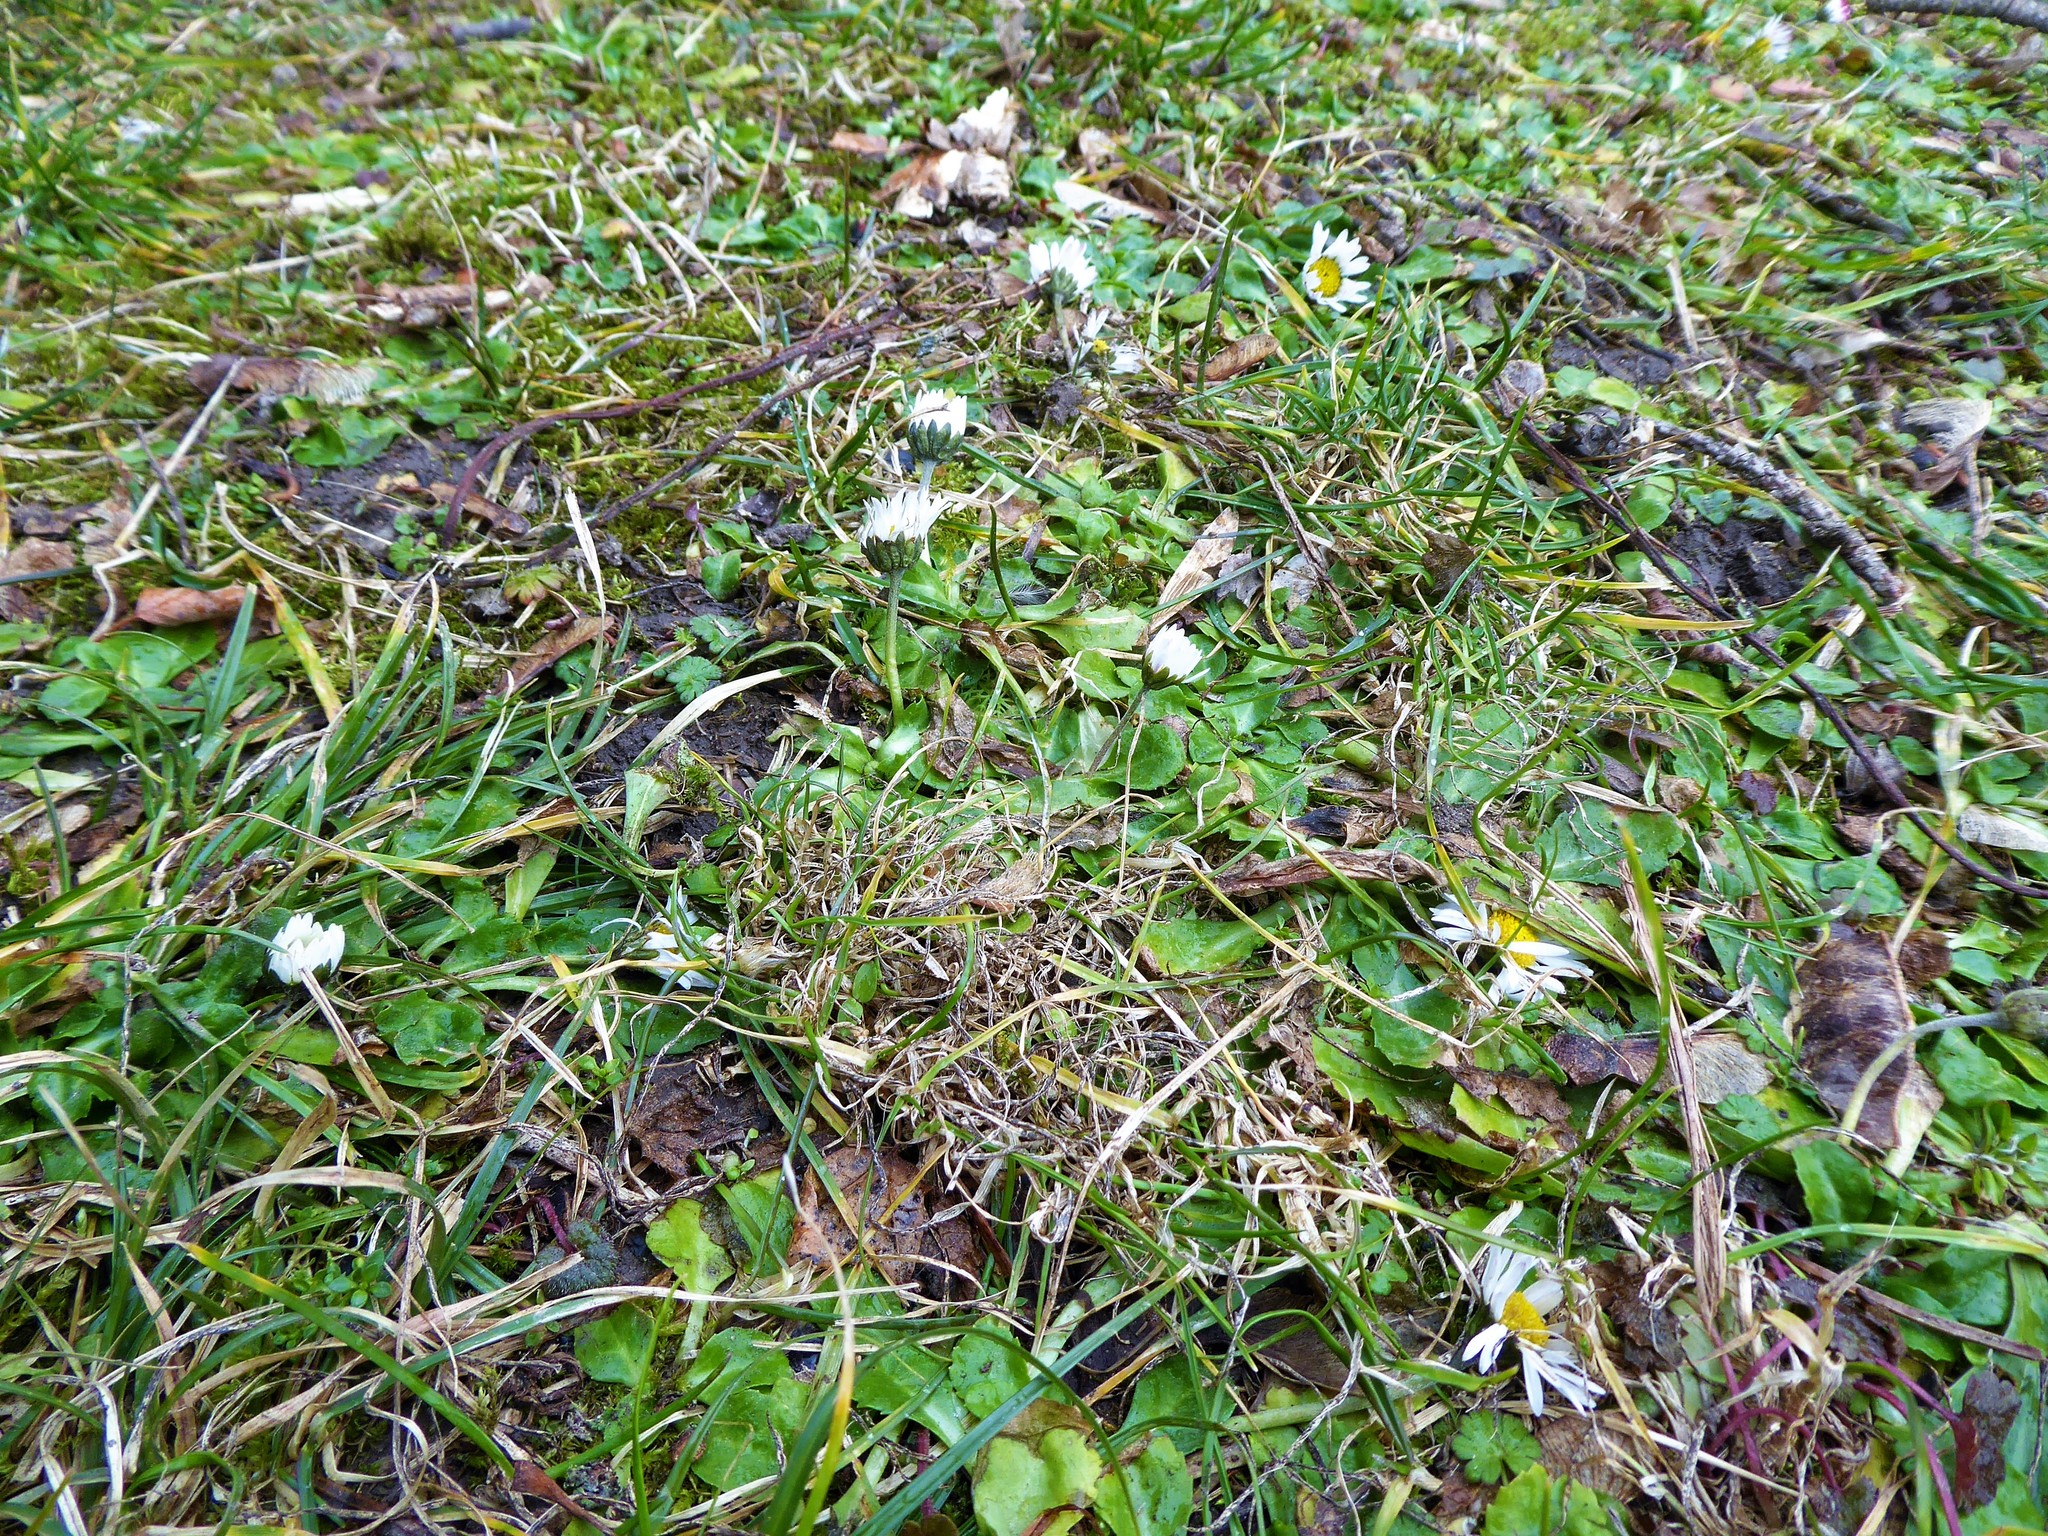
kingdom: Plantae
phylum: Tracheophyta
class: Magnoliopsida
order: Asterales
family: Asteraceae
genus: Bellis
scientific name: Bellis perennis
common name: Lawndaisy
